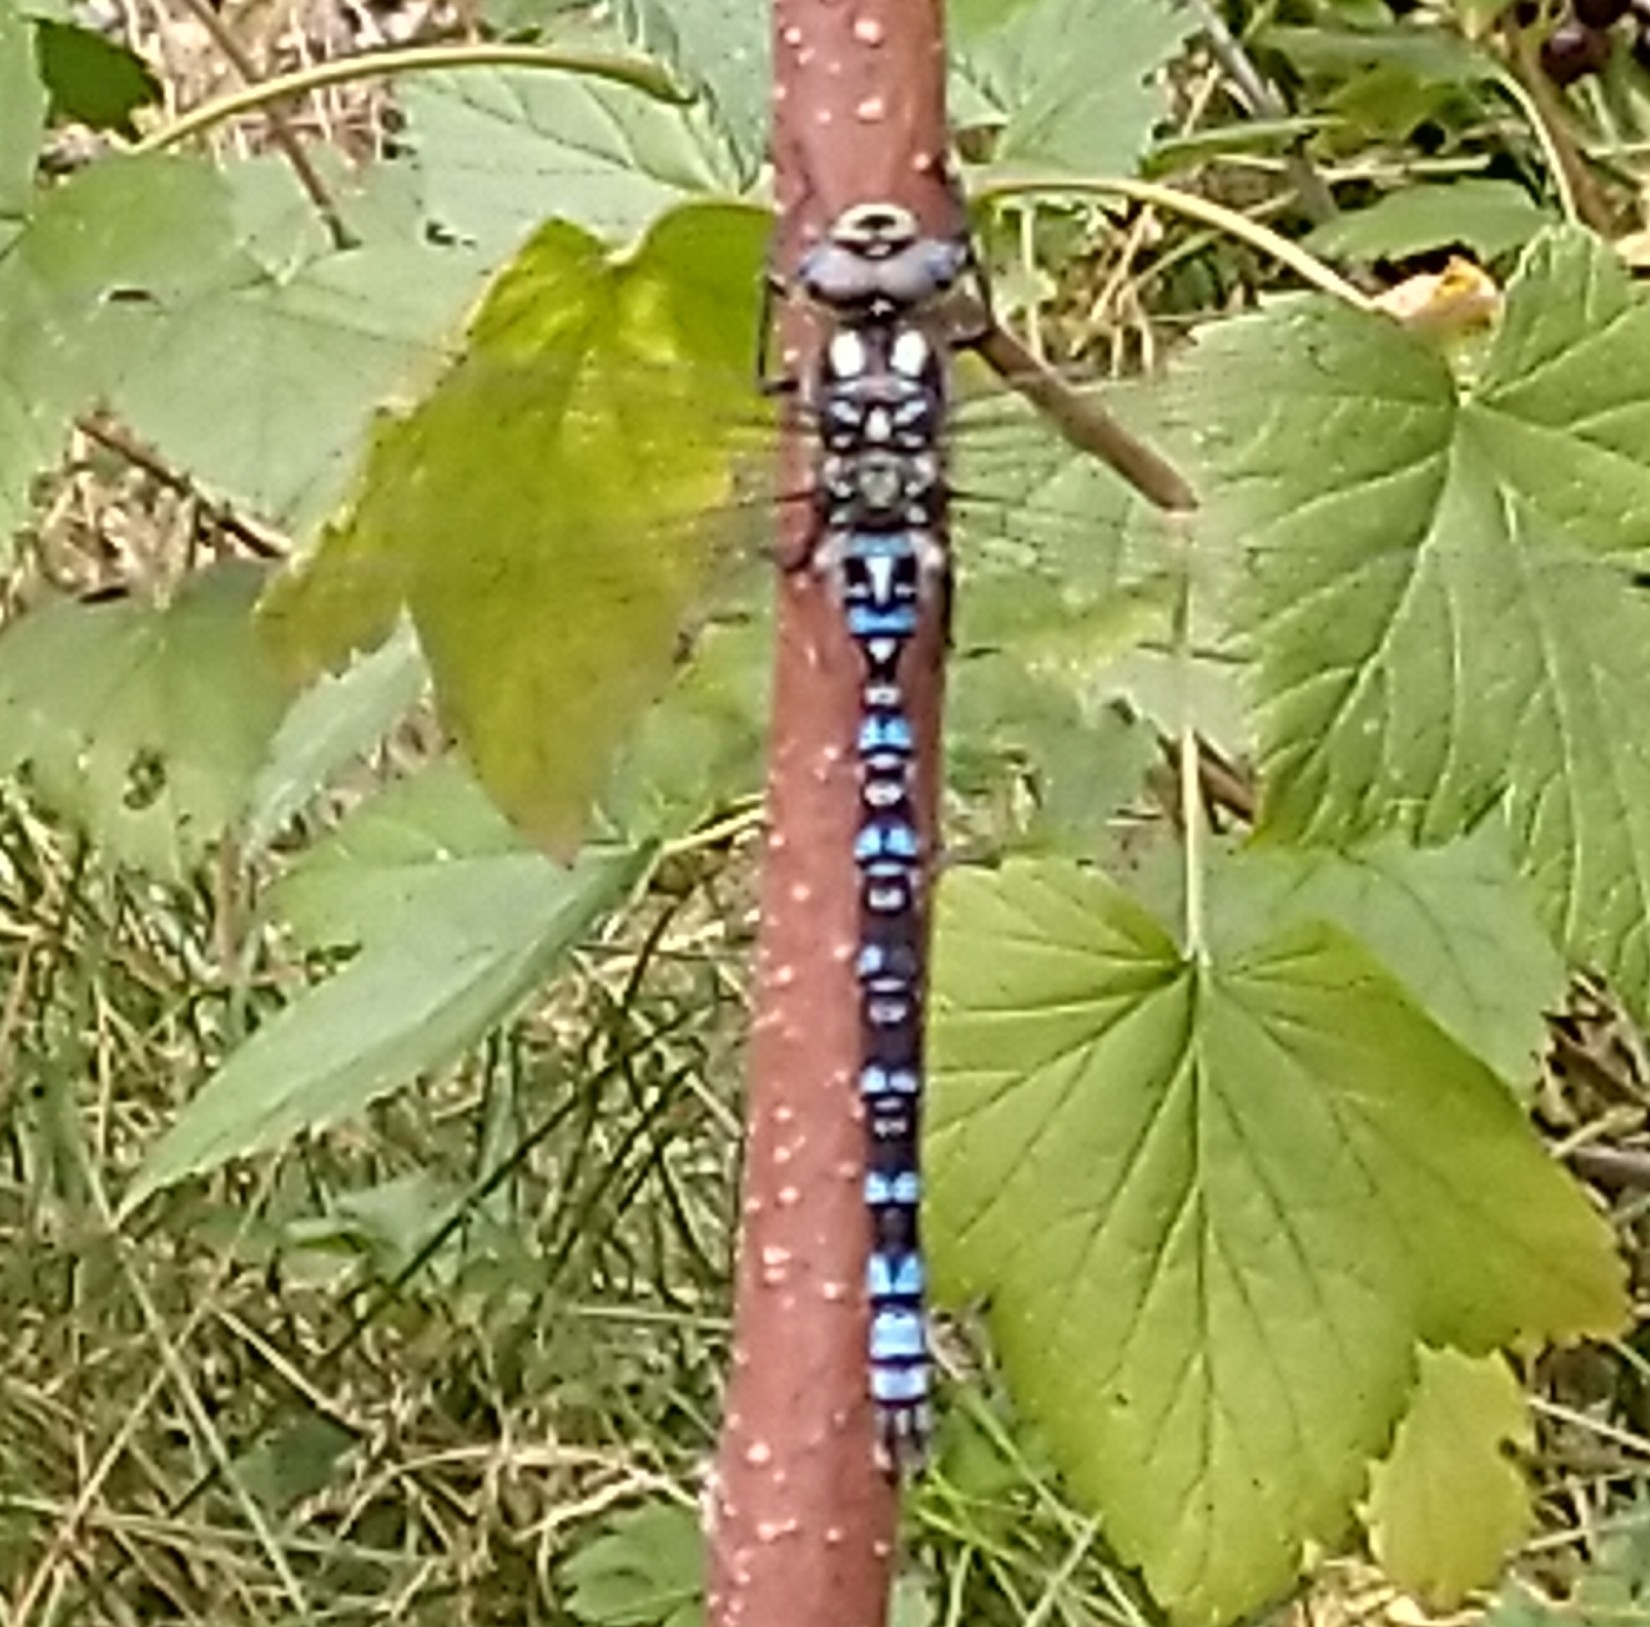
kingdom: Animalia
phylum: Arthropoda
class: Insecta
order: Odonata
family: Aeshnidae
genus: Aeshna
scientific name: Aeshna cyanea
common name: Southern hawker
